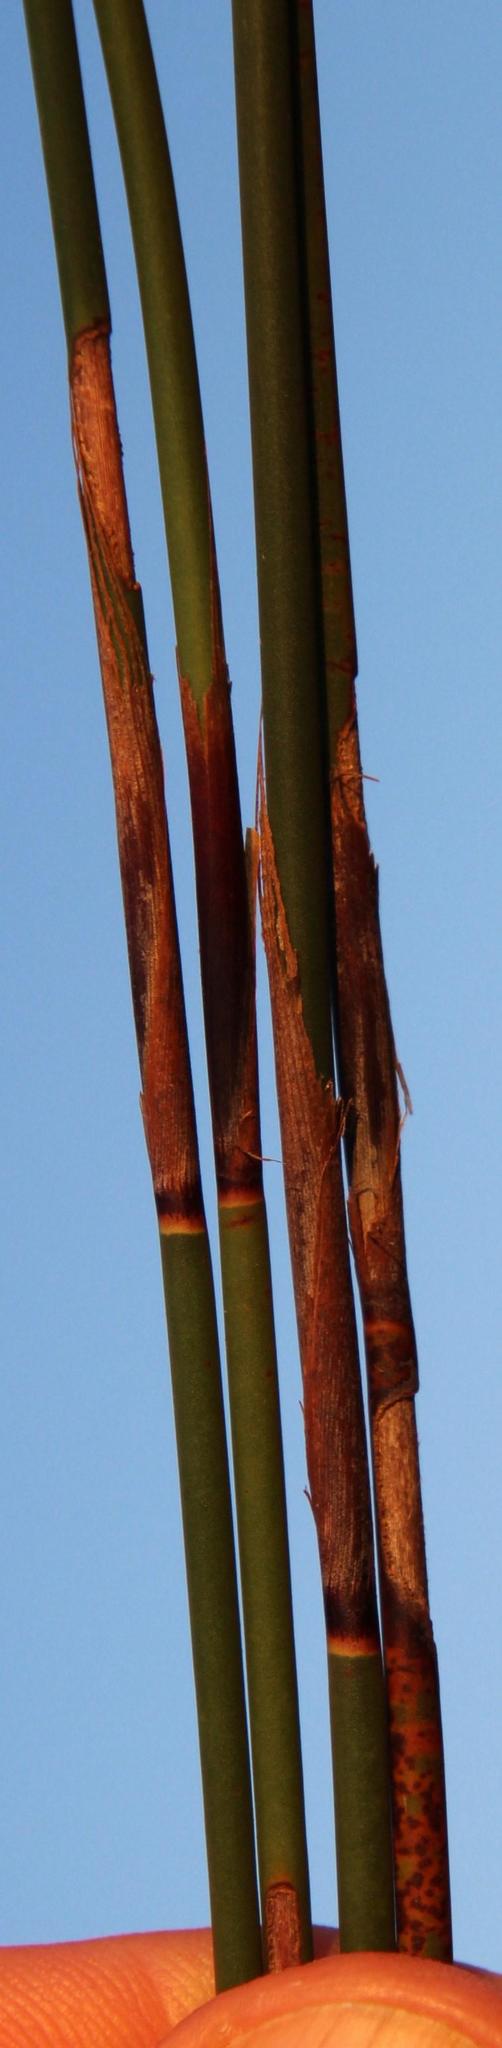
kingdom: Plantae
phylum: Tracheophyta
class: Liliopsida
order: Poales
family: Restionaceae
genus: Thamnochortus
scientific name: Thamnochortus fraternus
